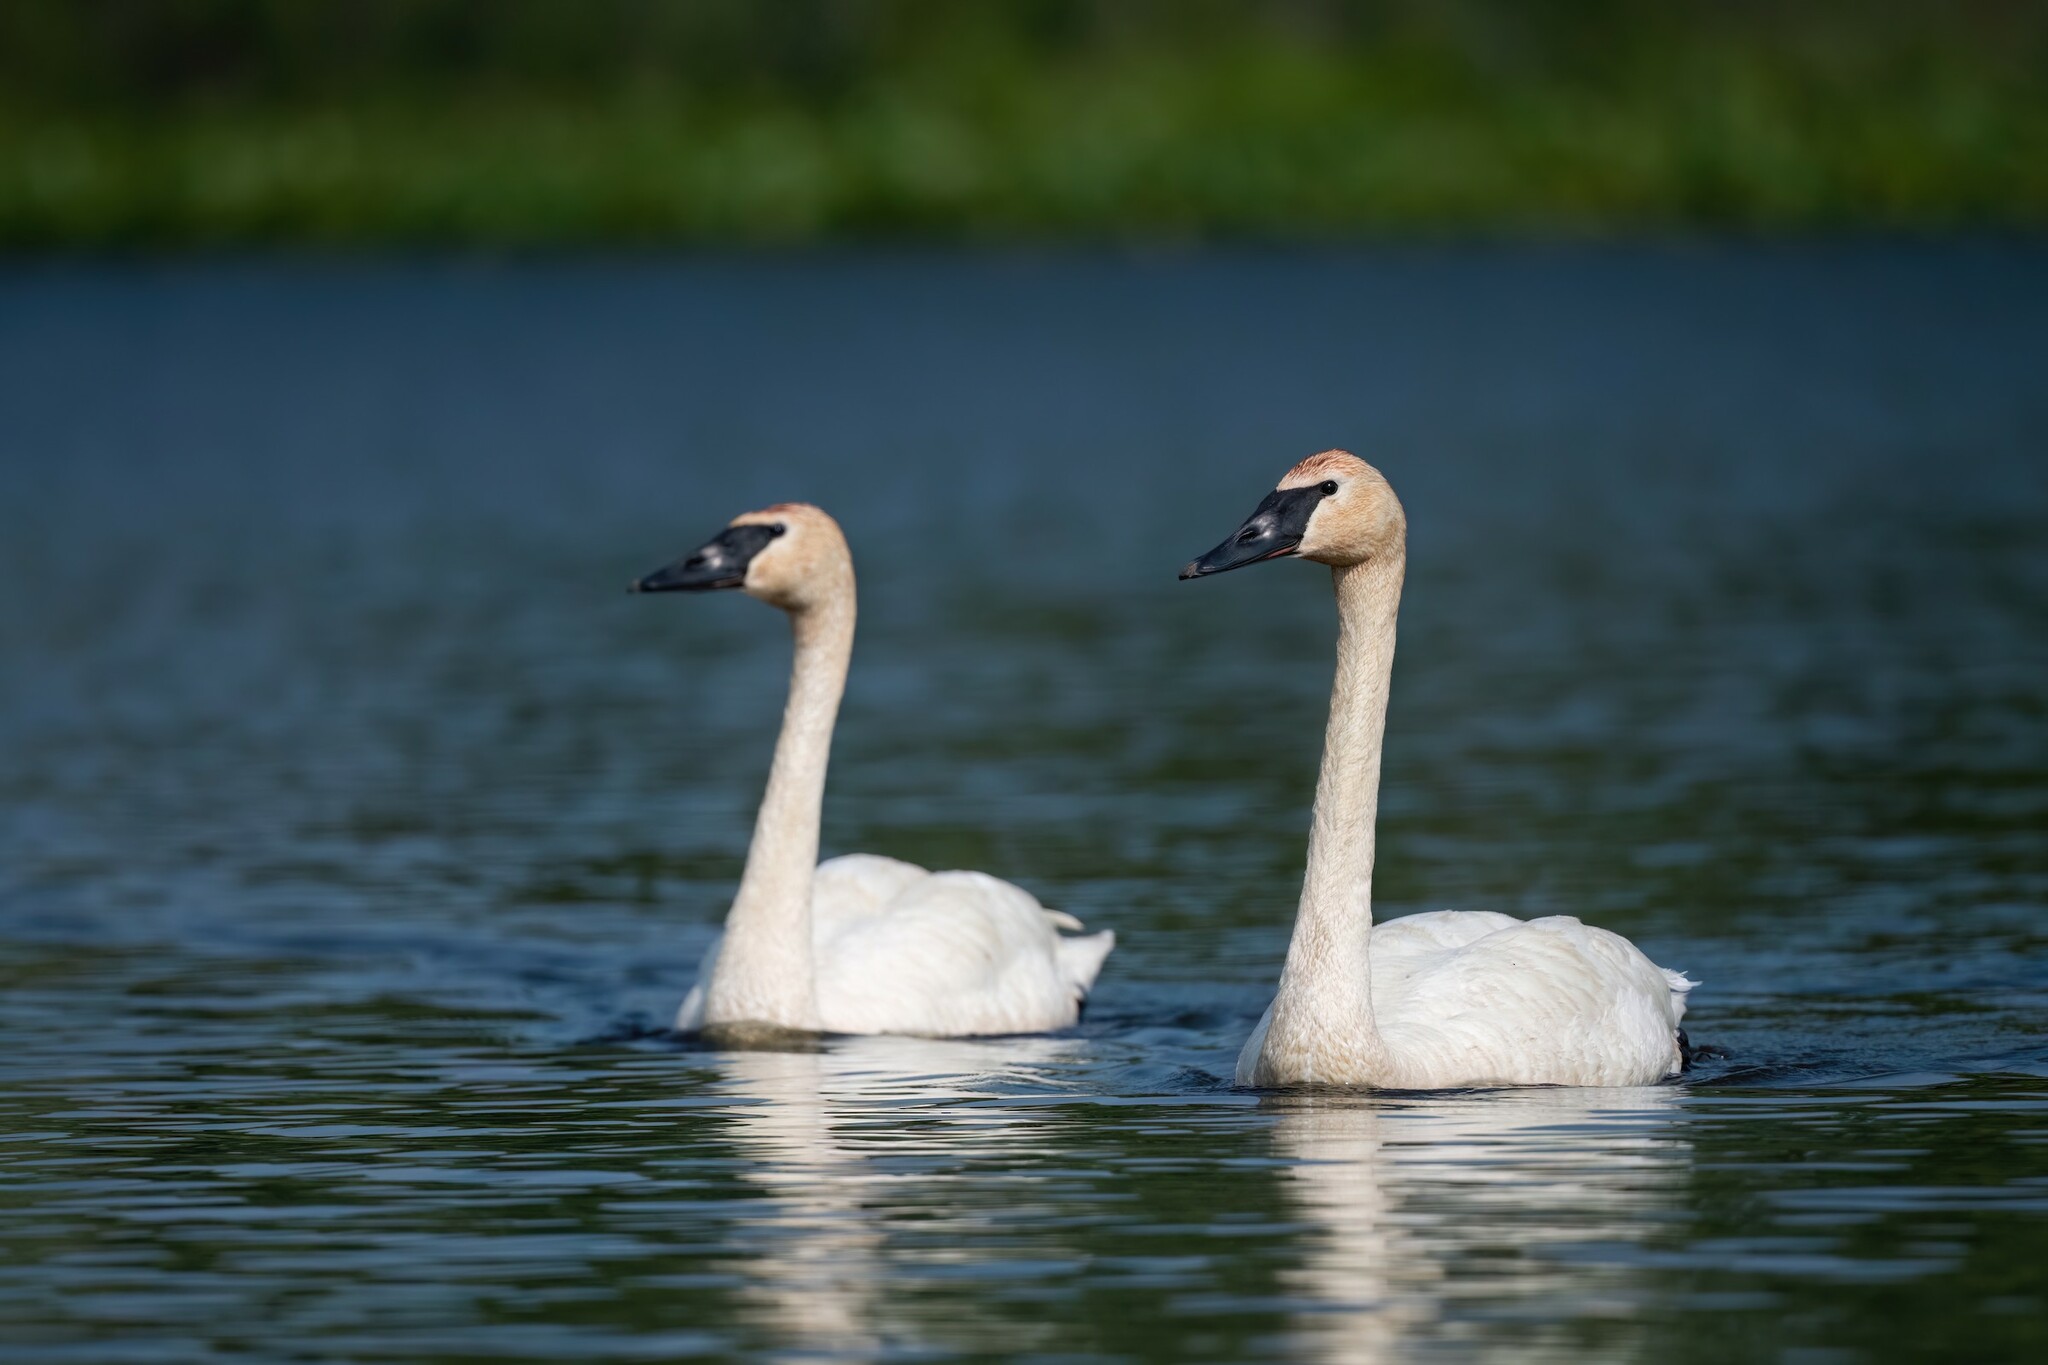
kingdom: Animalia
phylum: Chordata
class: Aves
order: Anseriformes
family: Anatidae
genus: Cygnus
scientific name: Cygnus buccinator
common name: Trumpeter swan
